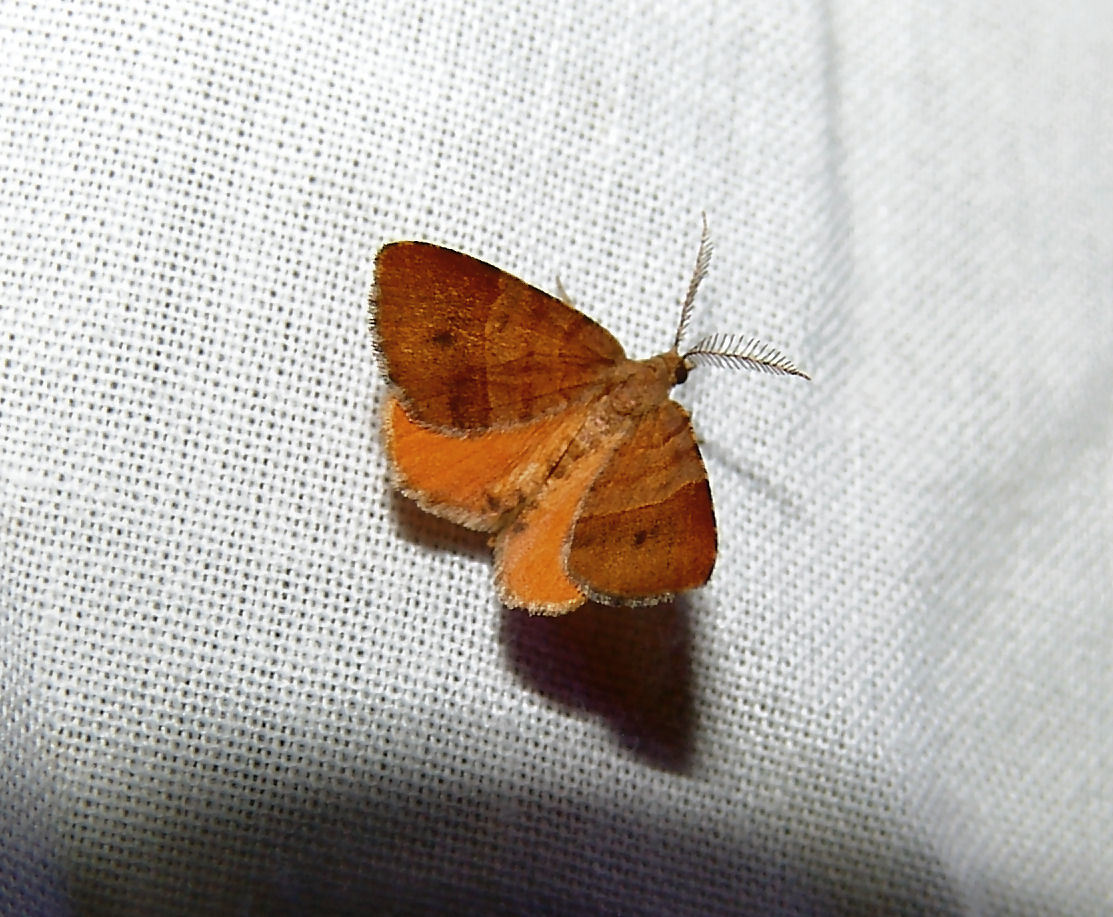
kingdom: Animalia
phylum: Arthropoda
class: Insecta
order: Lepidoptera
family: Geometridae
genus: Mellilla
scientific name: Mellilla xanthometata
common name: Orange wing moth
